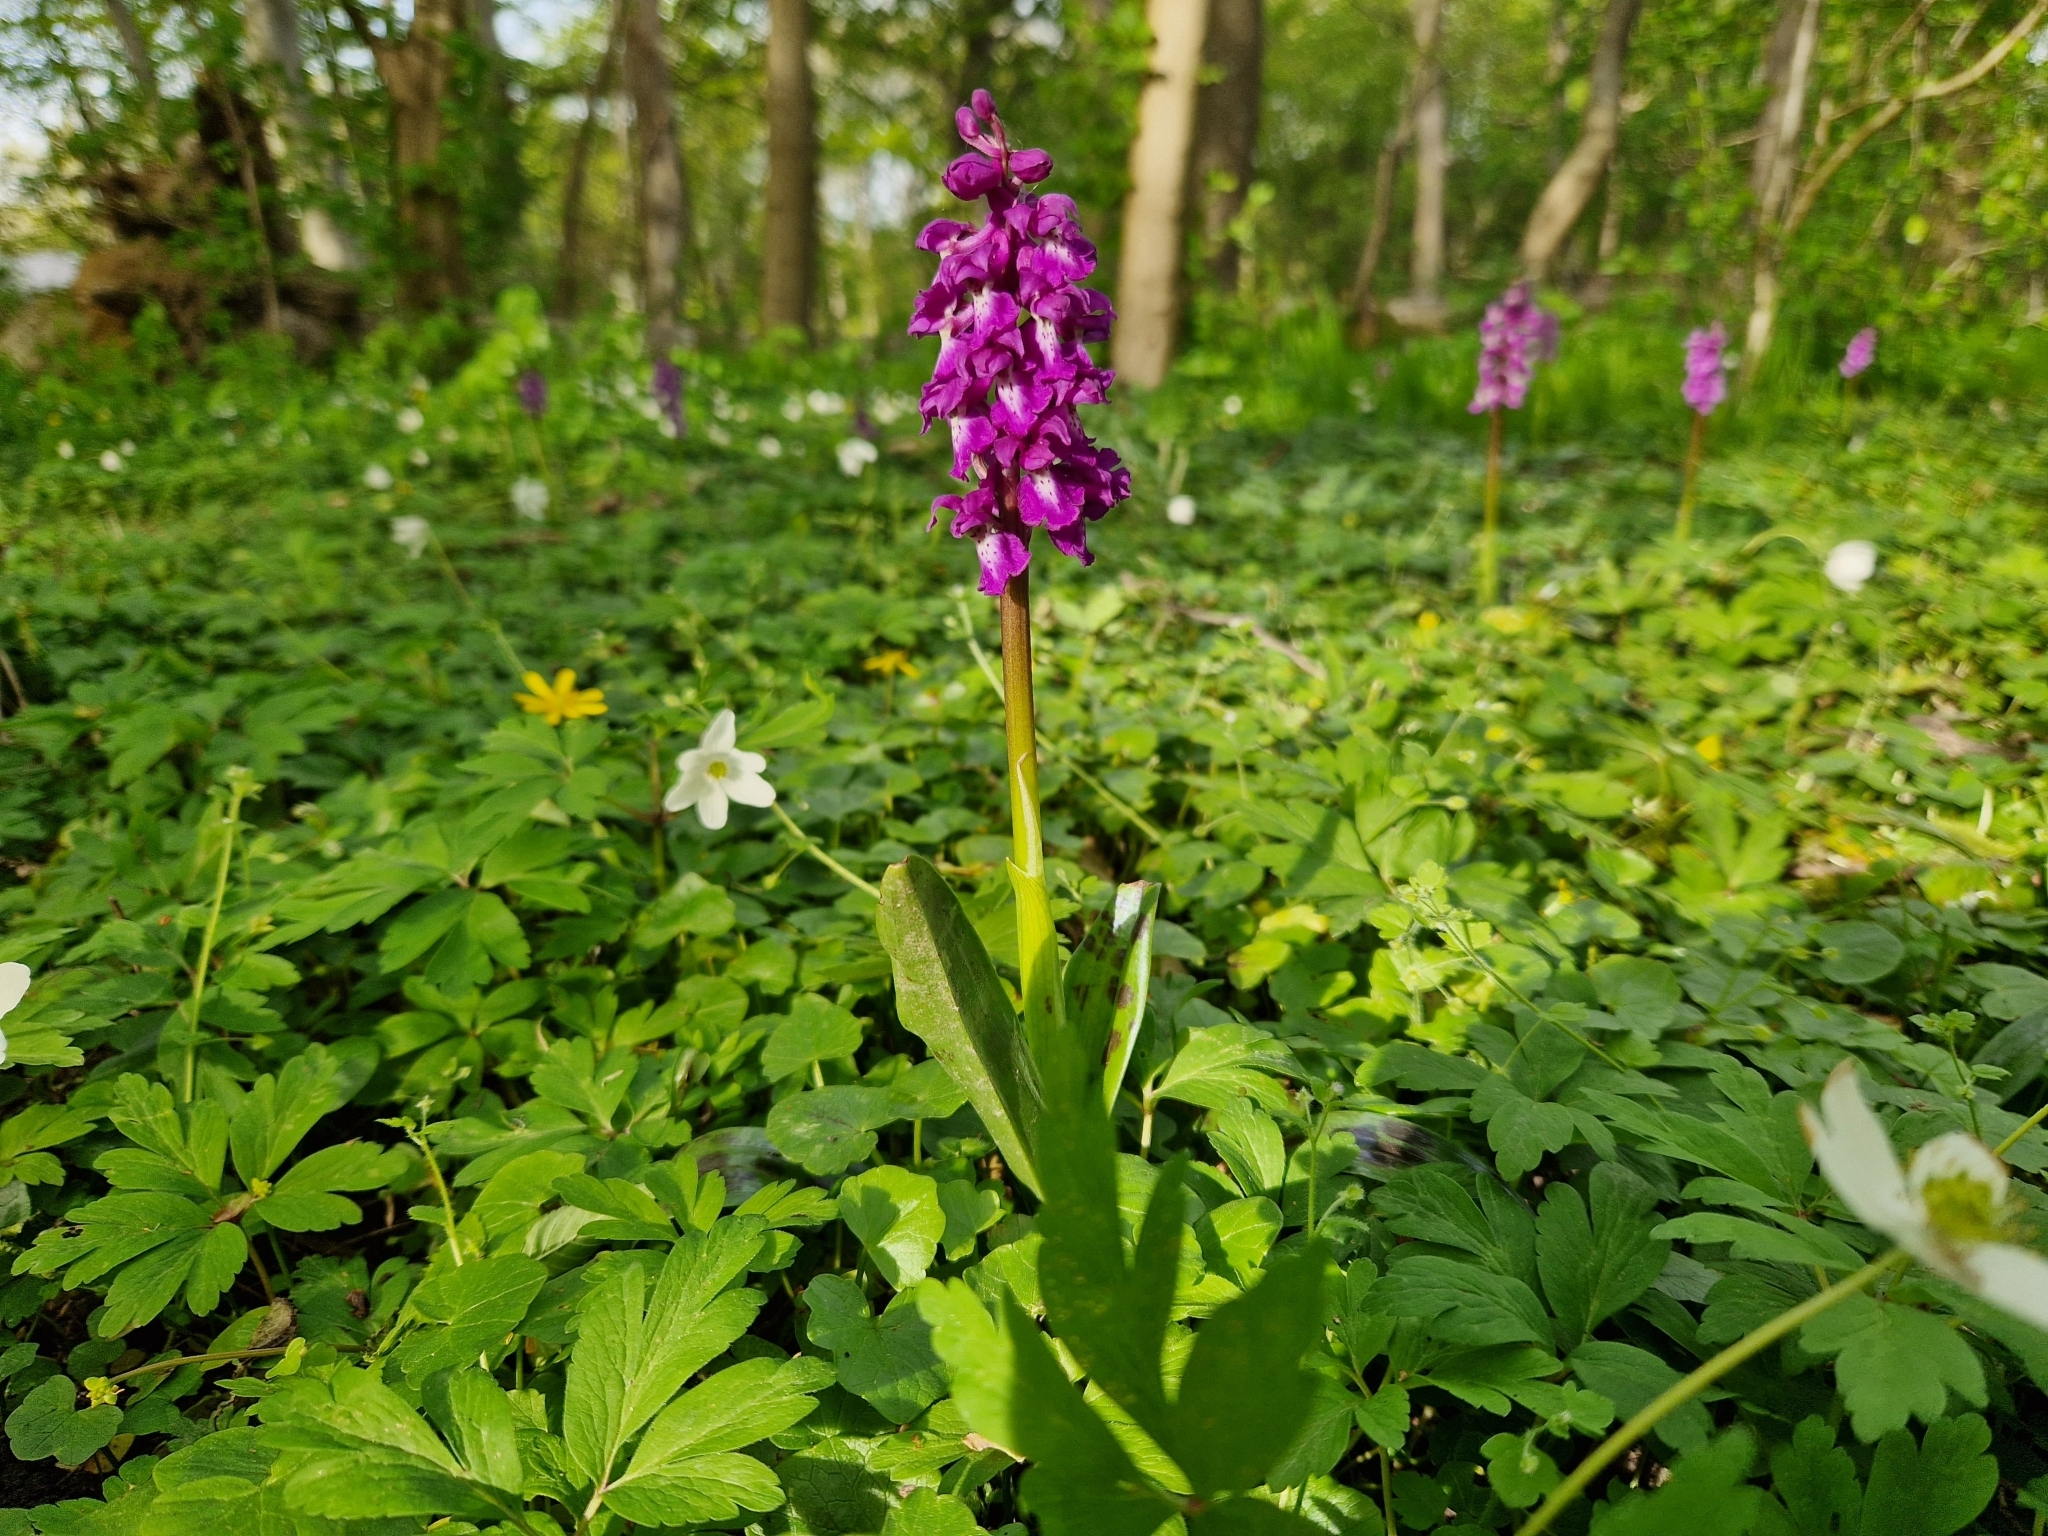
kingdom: Plantae
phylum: Tracheophyta
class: Liliopsida
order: Asparagales
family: Orchidaceae
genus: Orchis
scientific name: Orchis mascula
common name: Early-purple orchid
